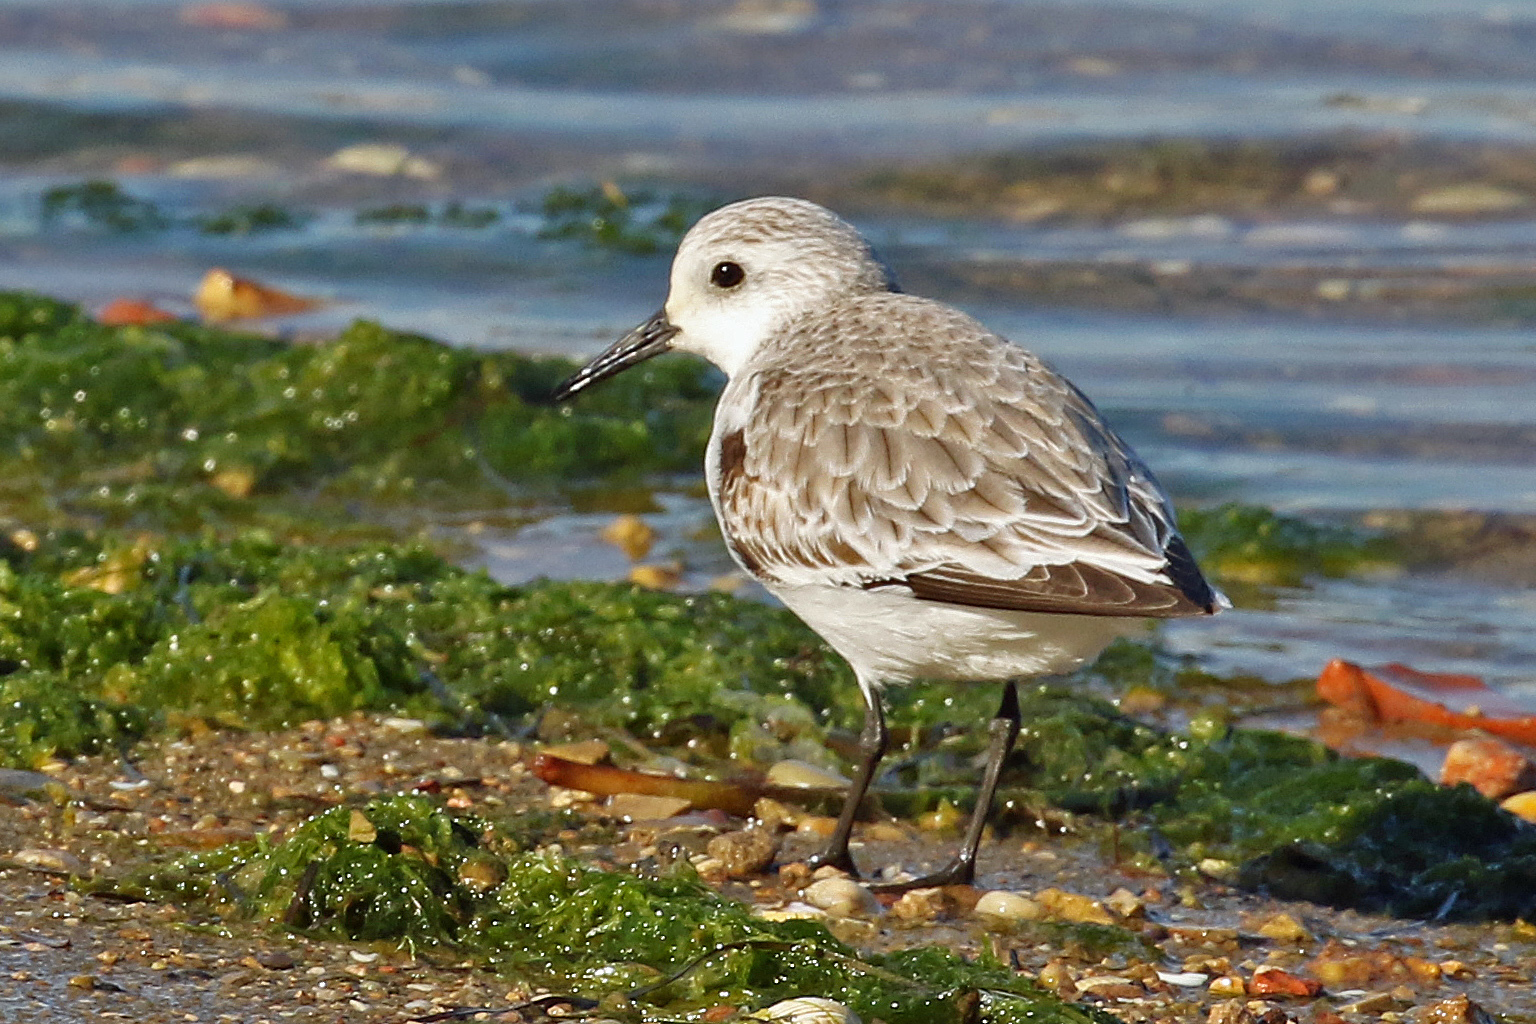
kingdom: Animalia
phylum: Chordata
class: Aves
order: Charadriiformes
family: Scolopacidae
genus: Calidris
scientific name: Calidris alba
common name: Sanderling
